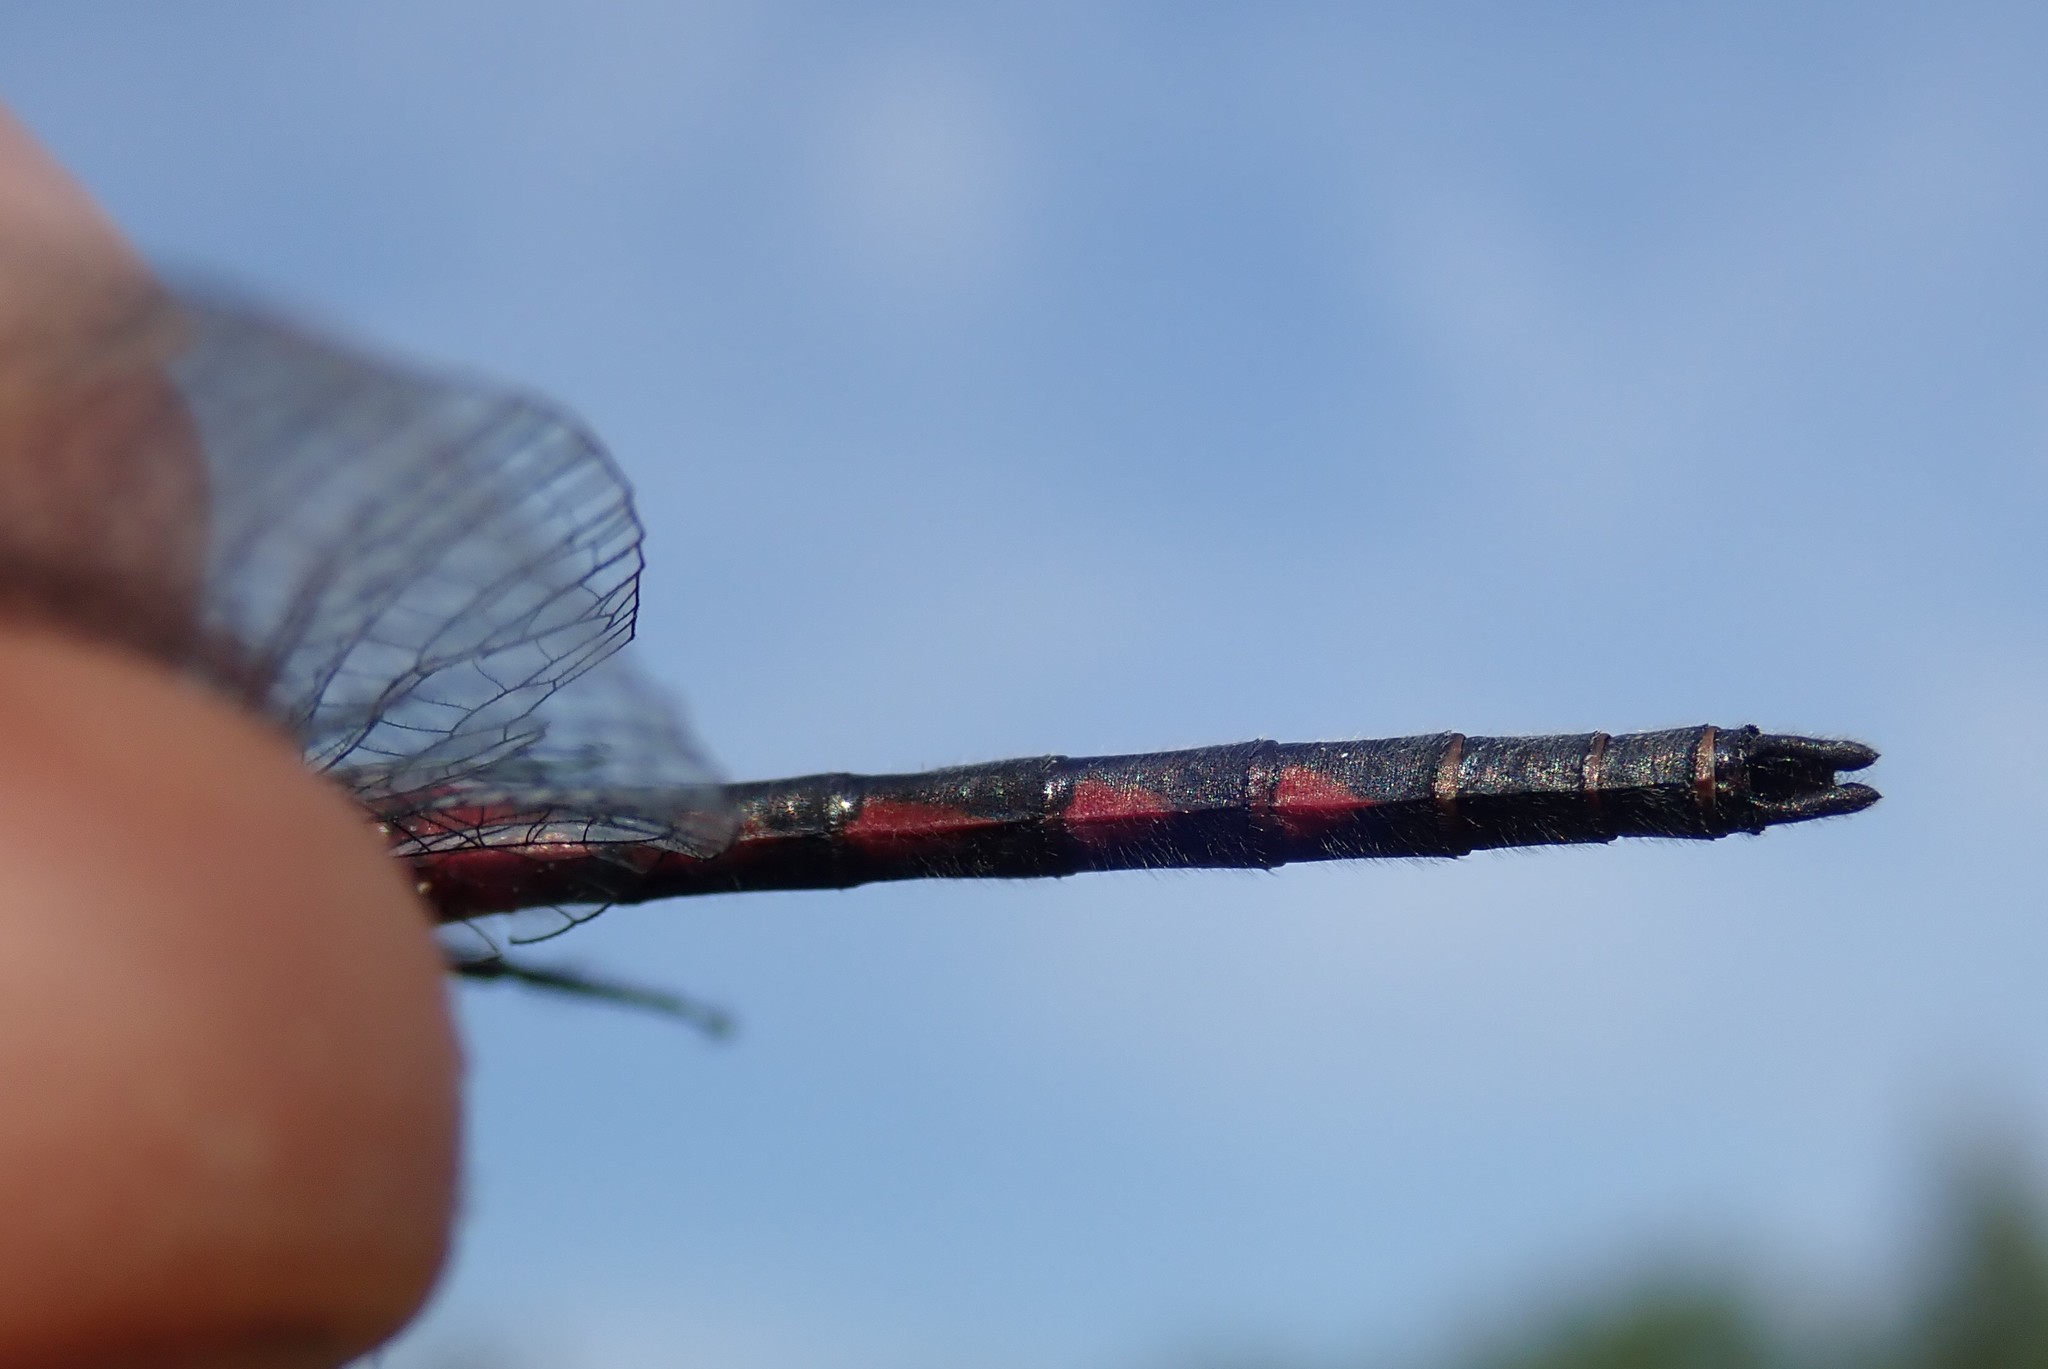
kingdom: Animalia
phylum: Arthropoda
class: Insecta
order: Odonata
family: Libellulidae
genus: Leucorrhinia
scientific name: Leucorrhinia hudsonica
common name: Hudsonian whiteface
